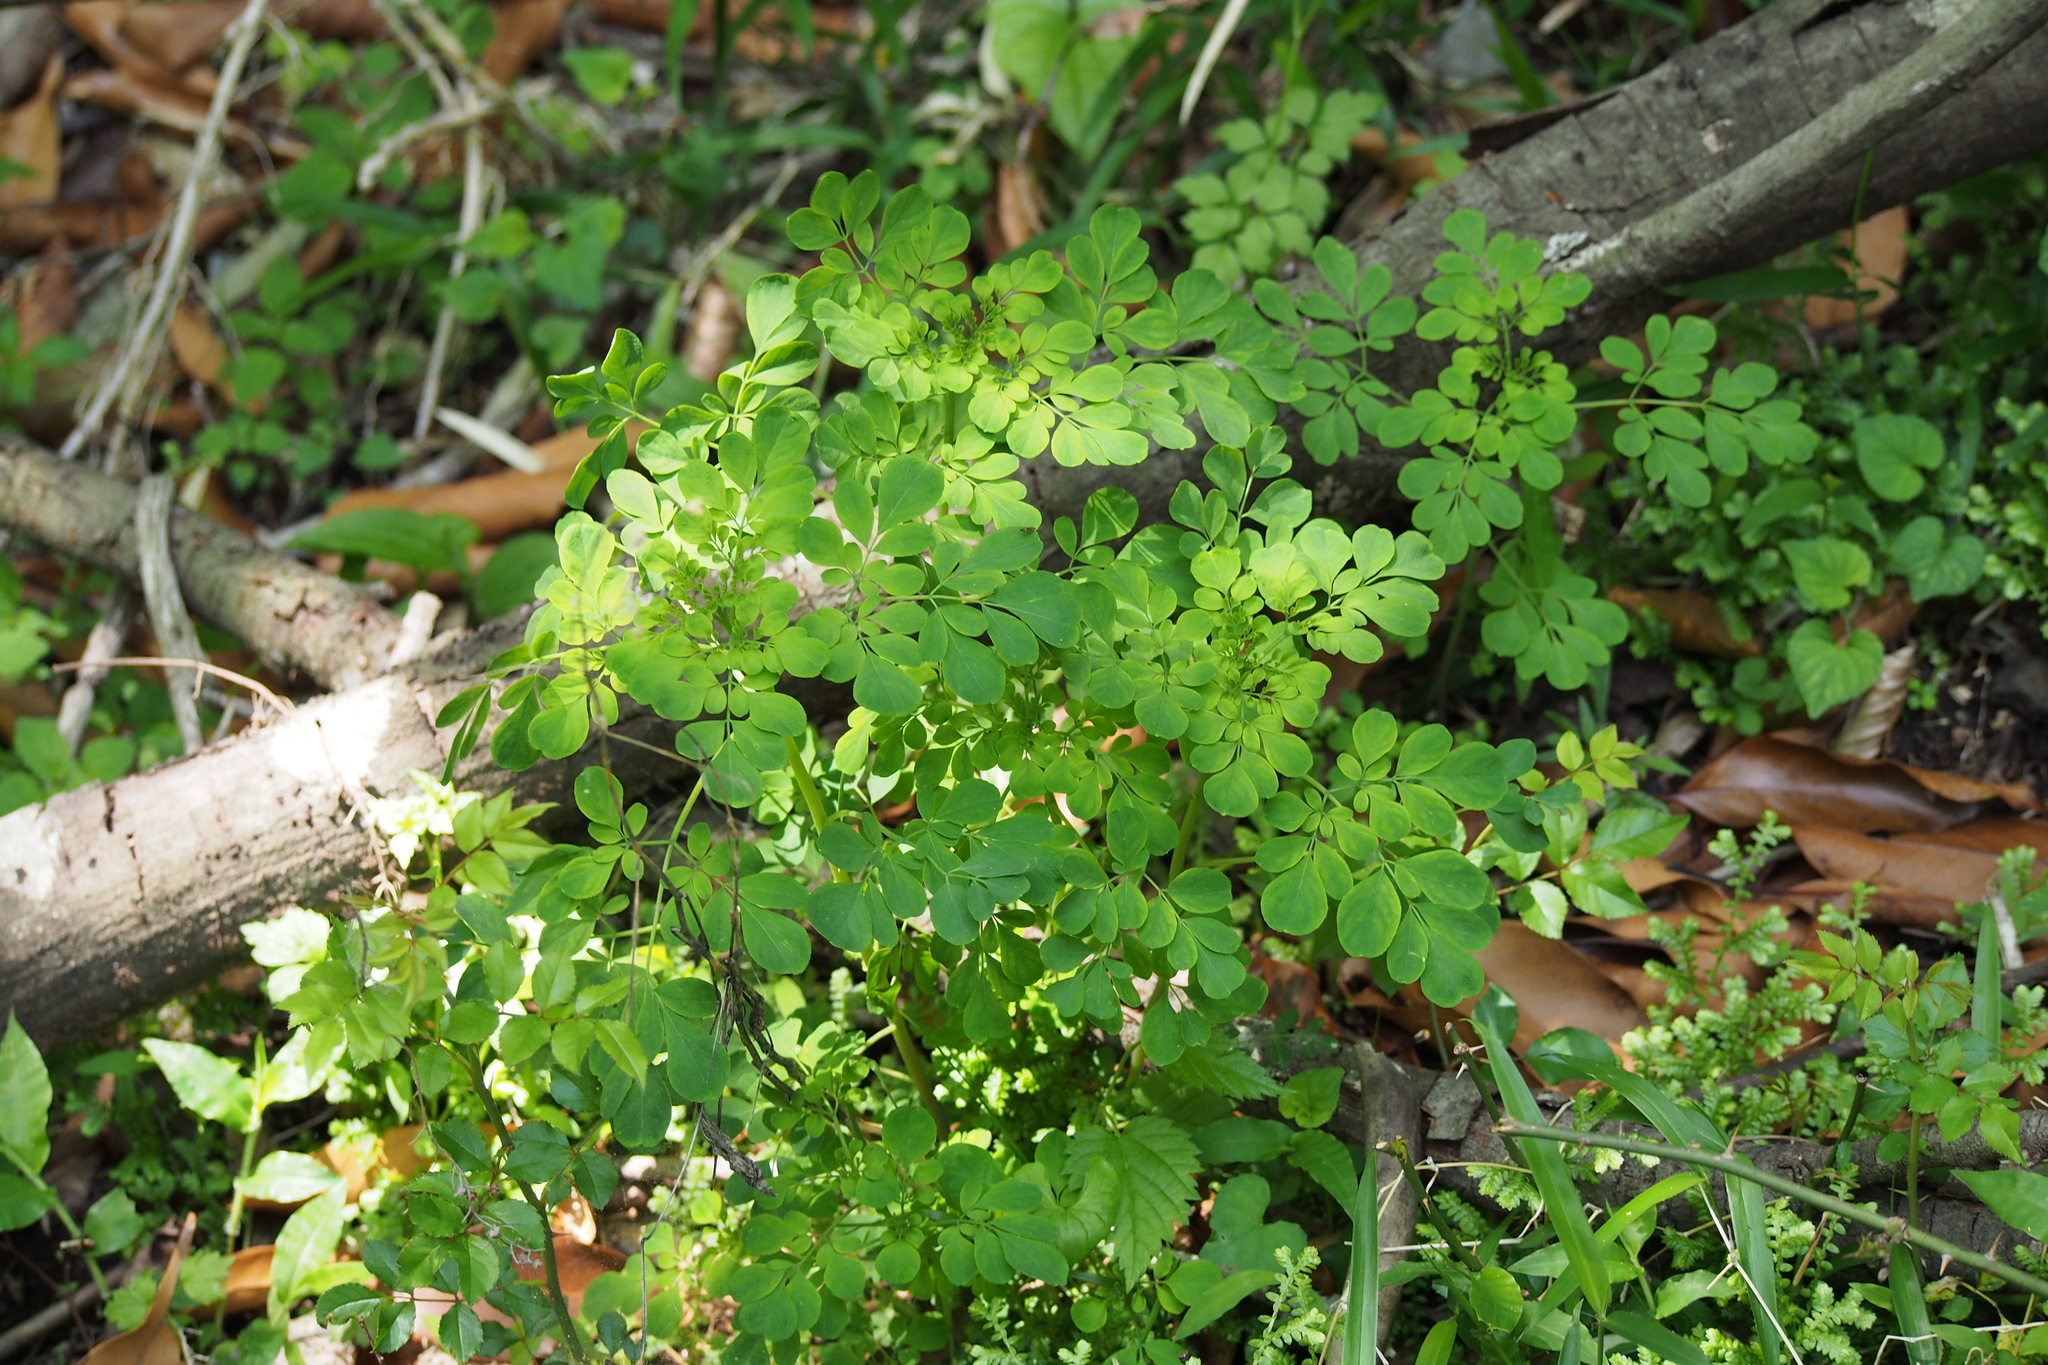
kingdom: Plantae
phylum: Tracheophyta
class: Magnoliopsida
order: Sapindales
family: Rutaceae
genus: Boenninghausenia
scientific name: Boenninghausenia albiflora
